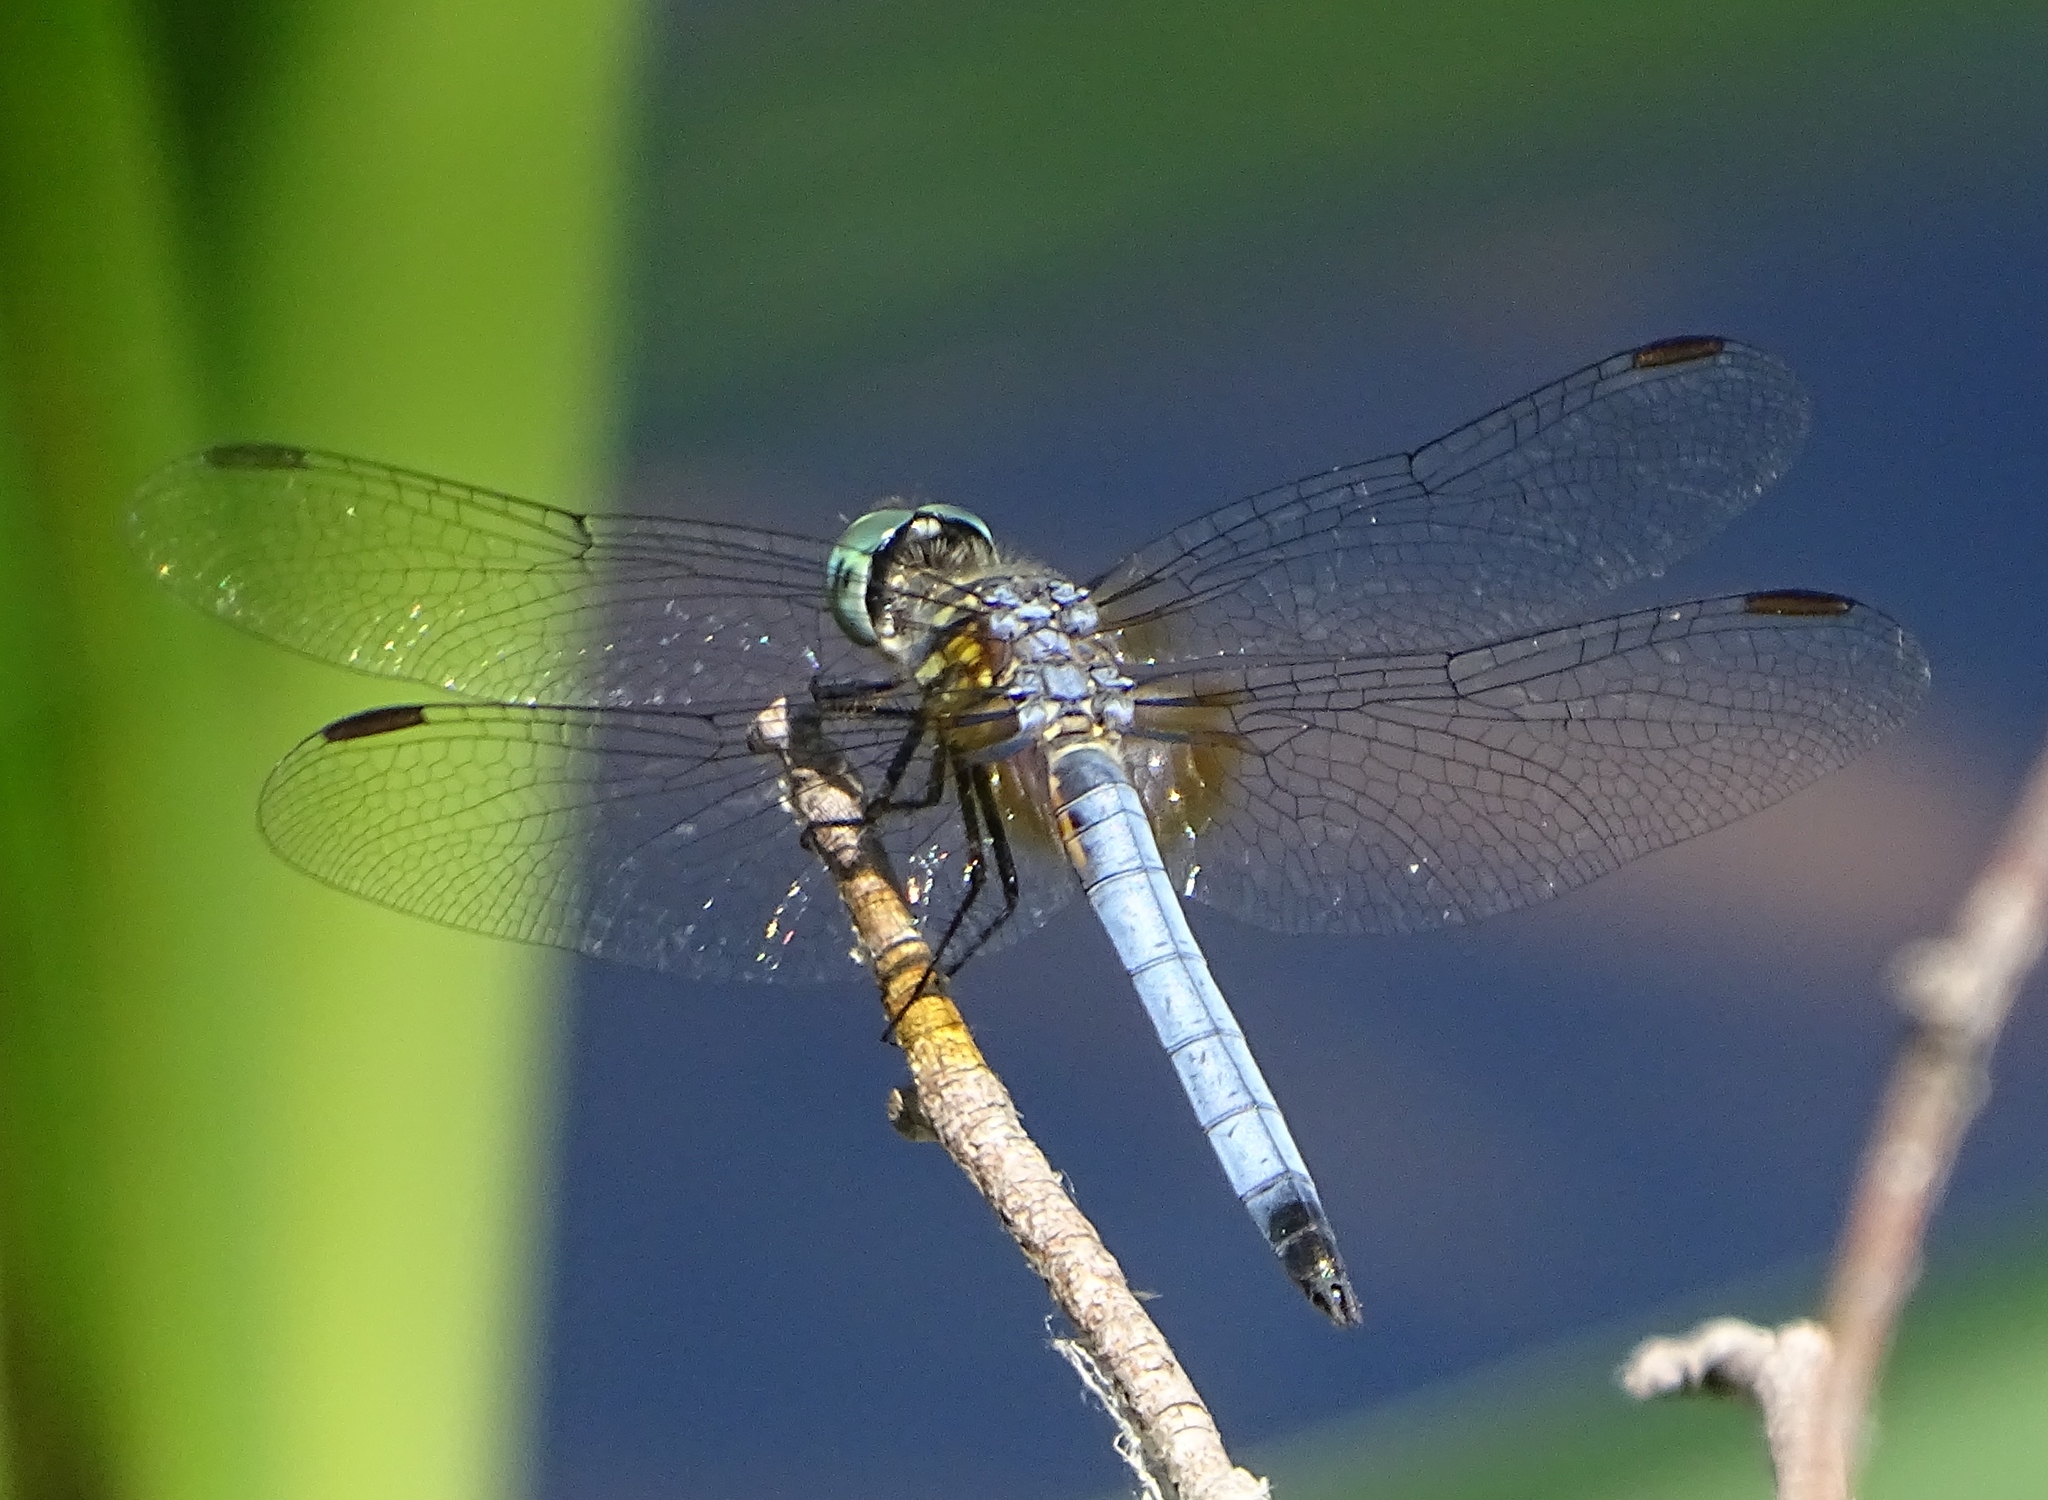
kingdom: Animalia
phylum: Arthropoda
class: Insecta
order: Odonata
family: Libellulidae
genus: Pachydiplax
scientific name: Pachydiplax longipennis
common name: Blue dasher
